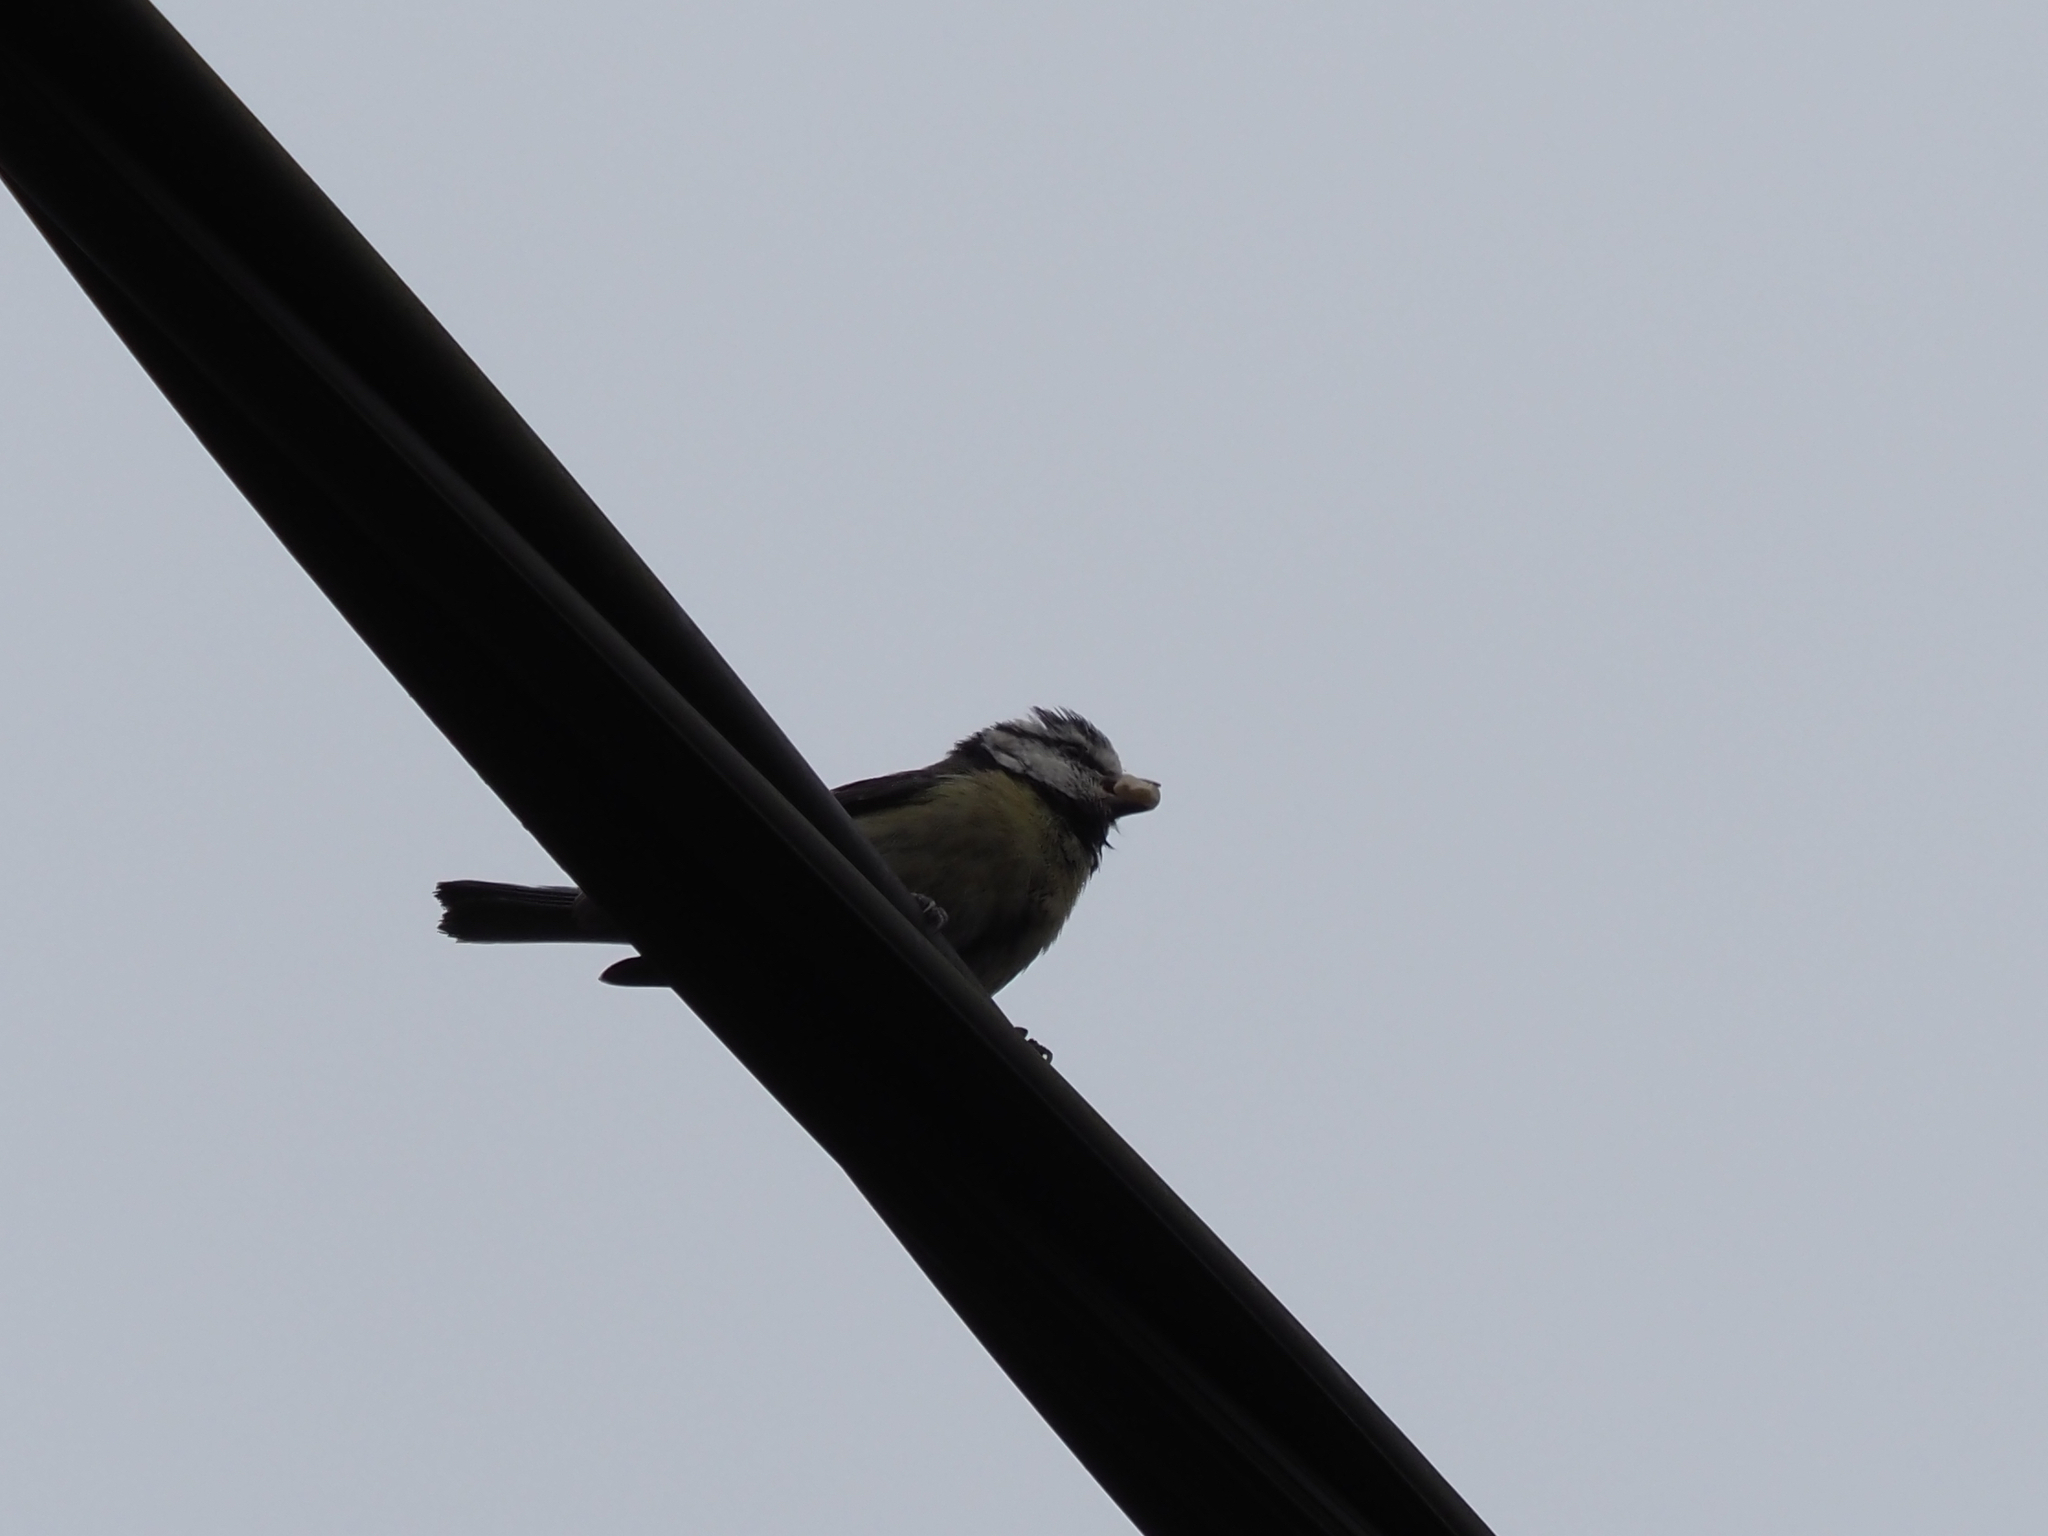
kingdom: Animalia
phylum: Chordata
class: Aves
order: Passeriformes
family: Paridae
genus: Cyanistes
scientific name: Cyanistes caeruleus
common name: Eurasian blue tit
